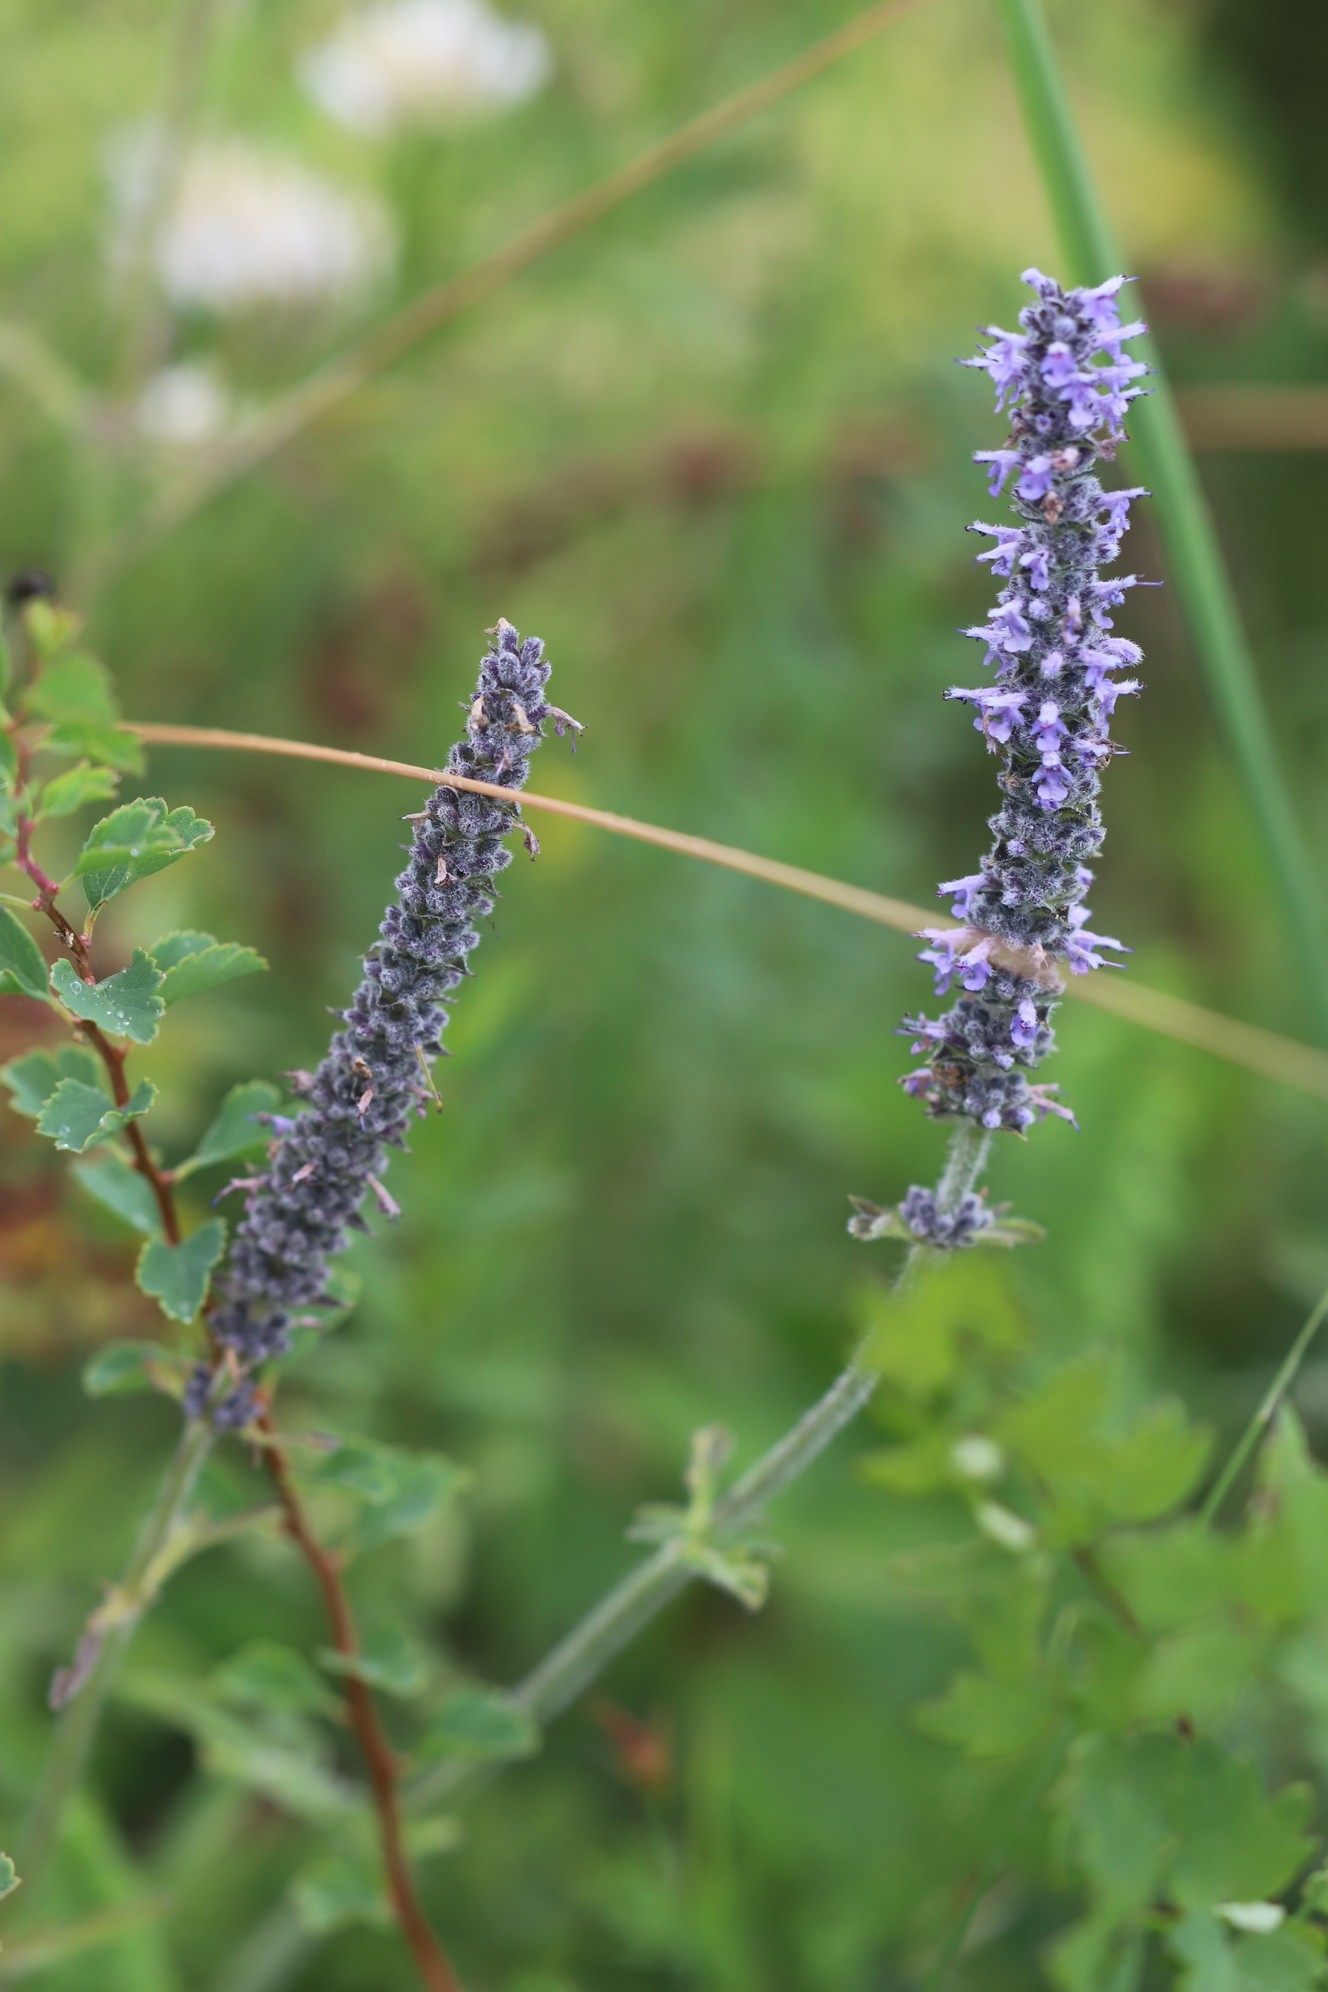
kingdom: Plantae
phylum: Tracheophyta
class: Magnoliopsida
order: Lamiales
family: Lamiaceae
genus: Nepeta
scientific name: Nepeta multifida
